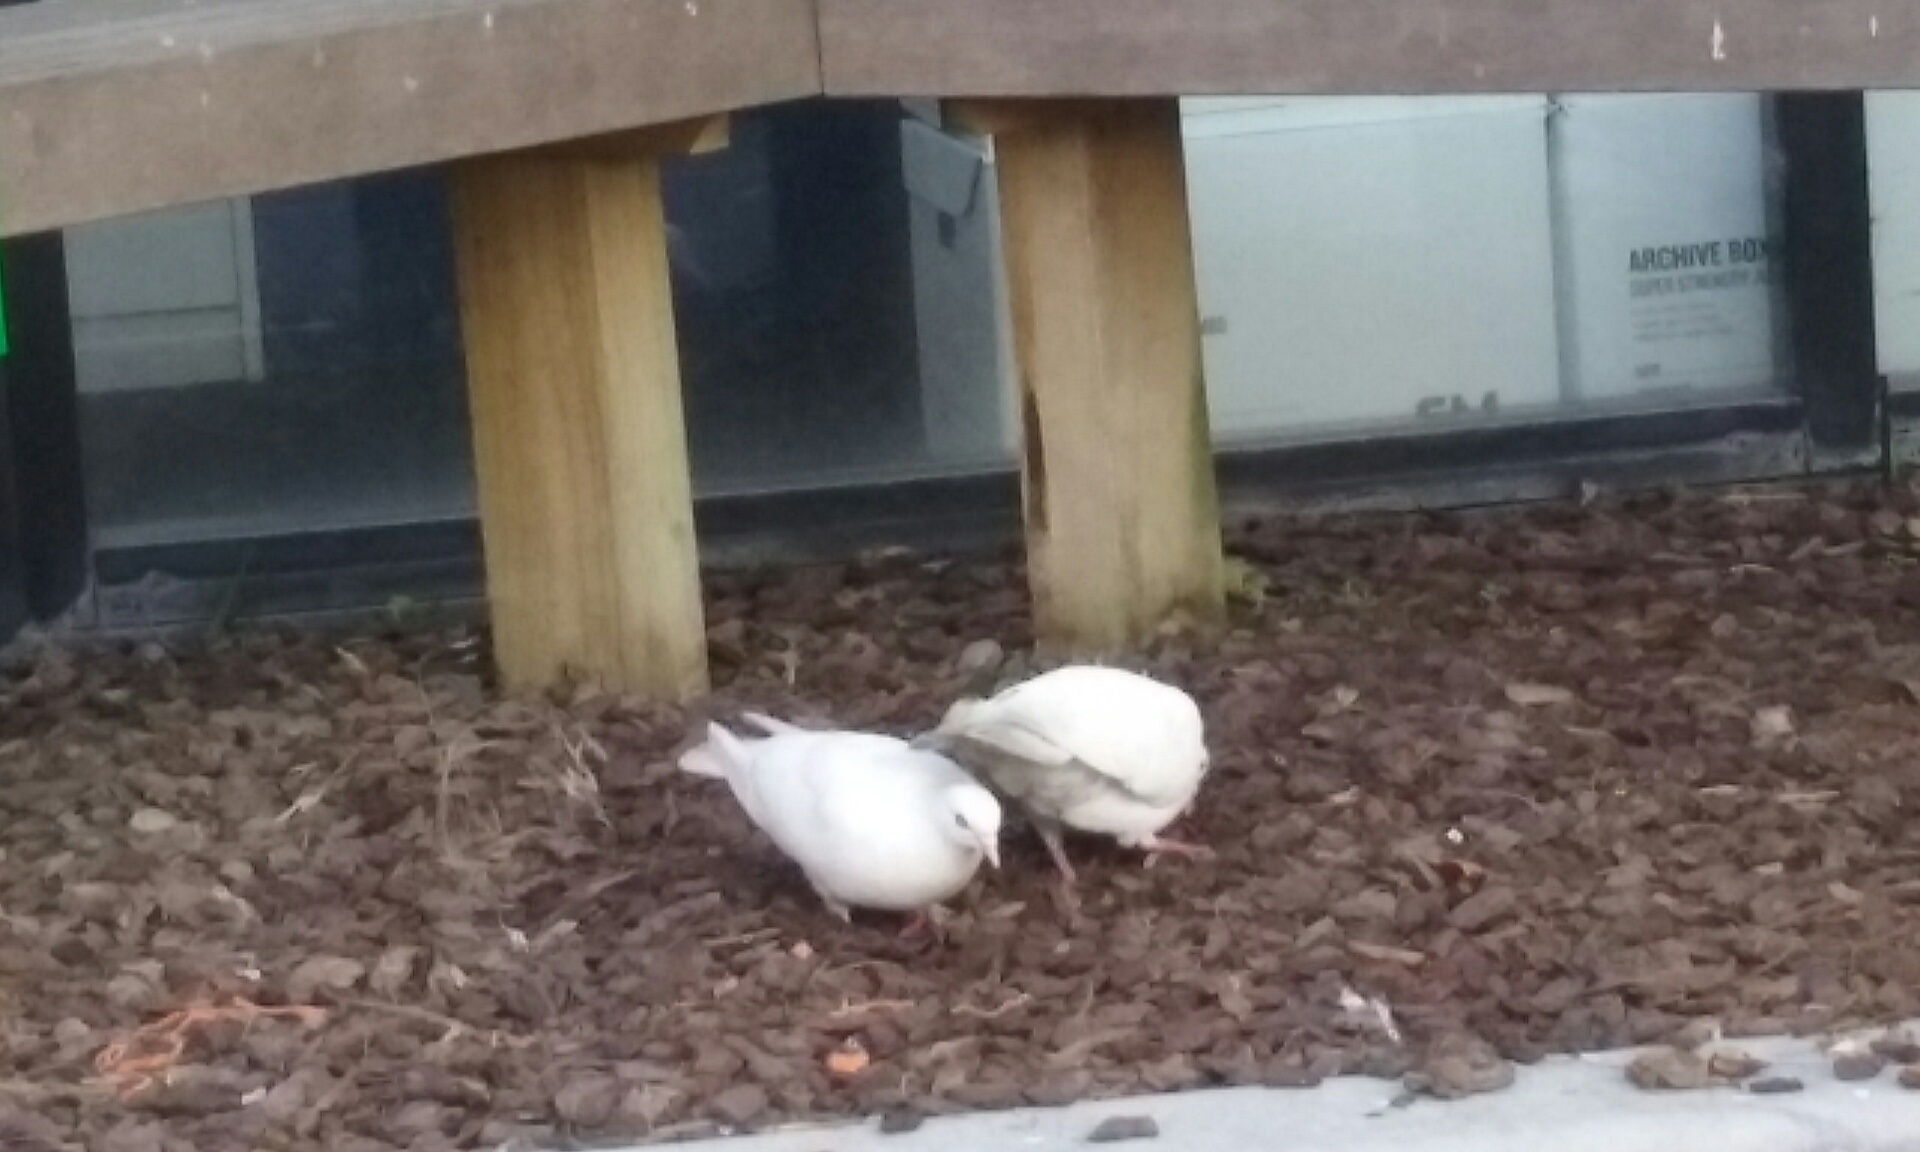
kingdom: Animalia
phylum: Chordata
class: Aves
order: Columbiformes
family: Columbidae
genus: Columba
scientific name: Columba livia
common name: Rock pigeon
